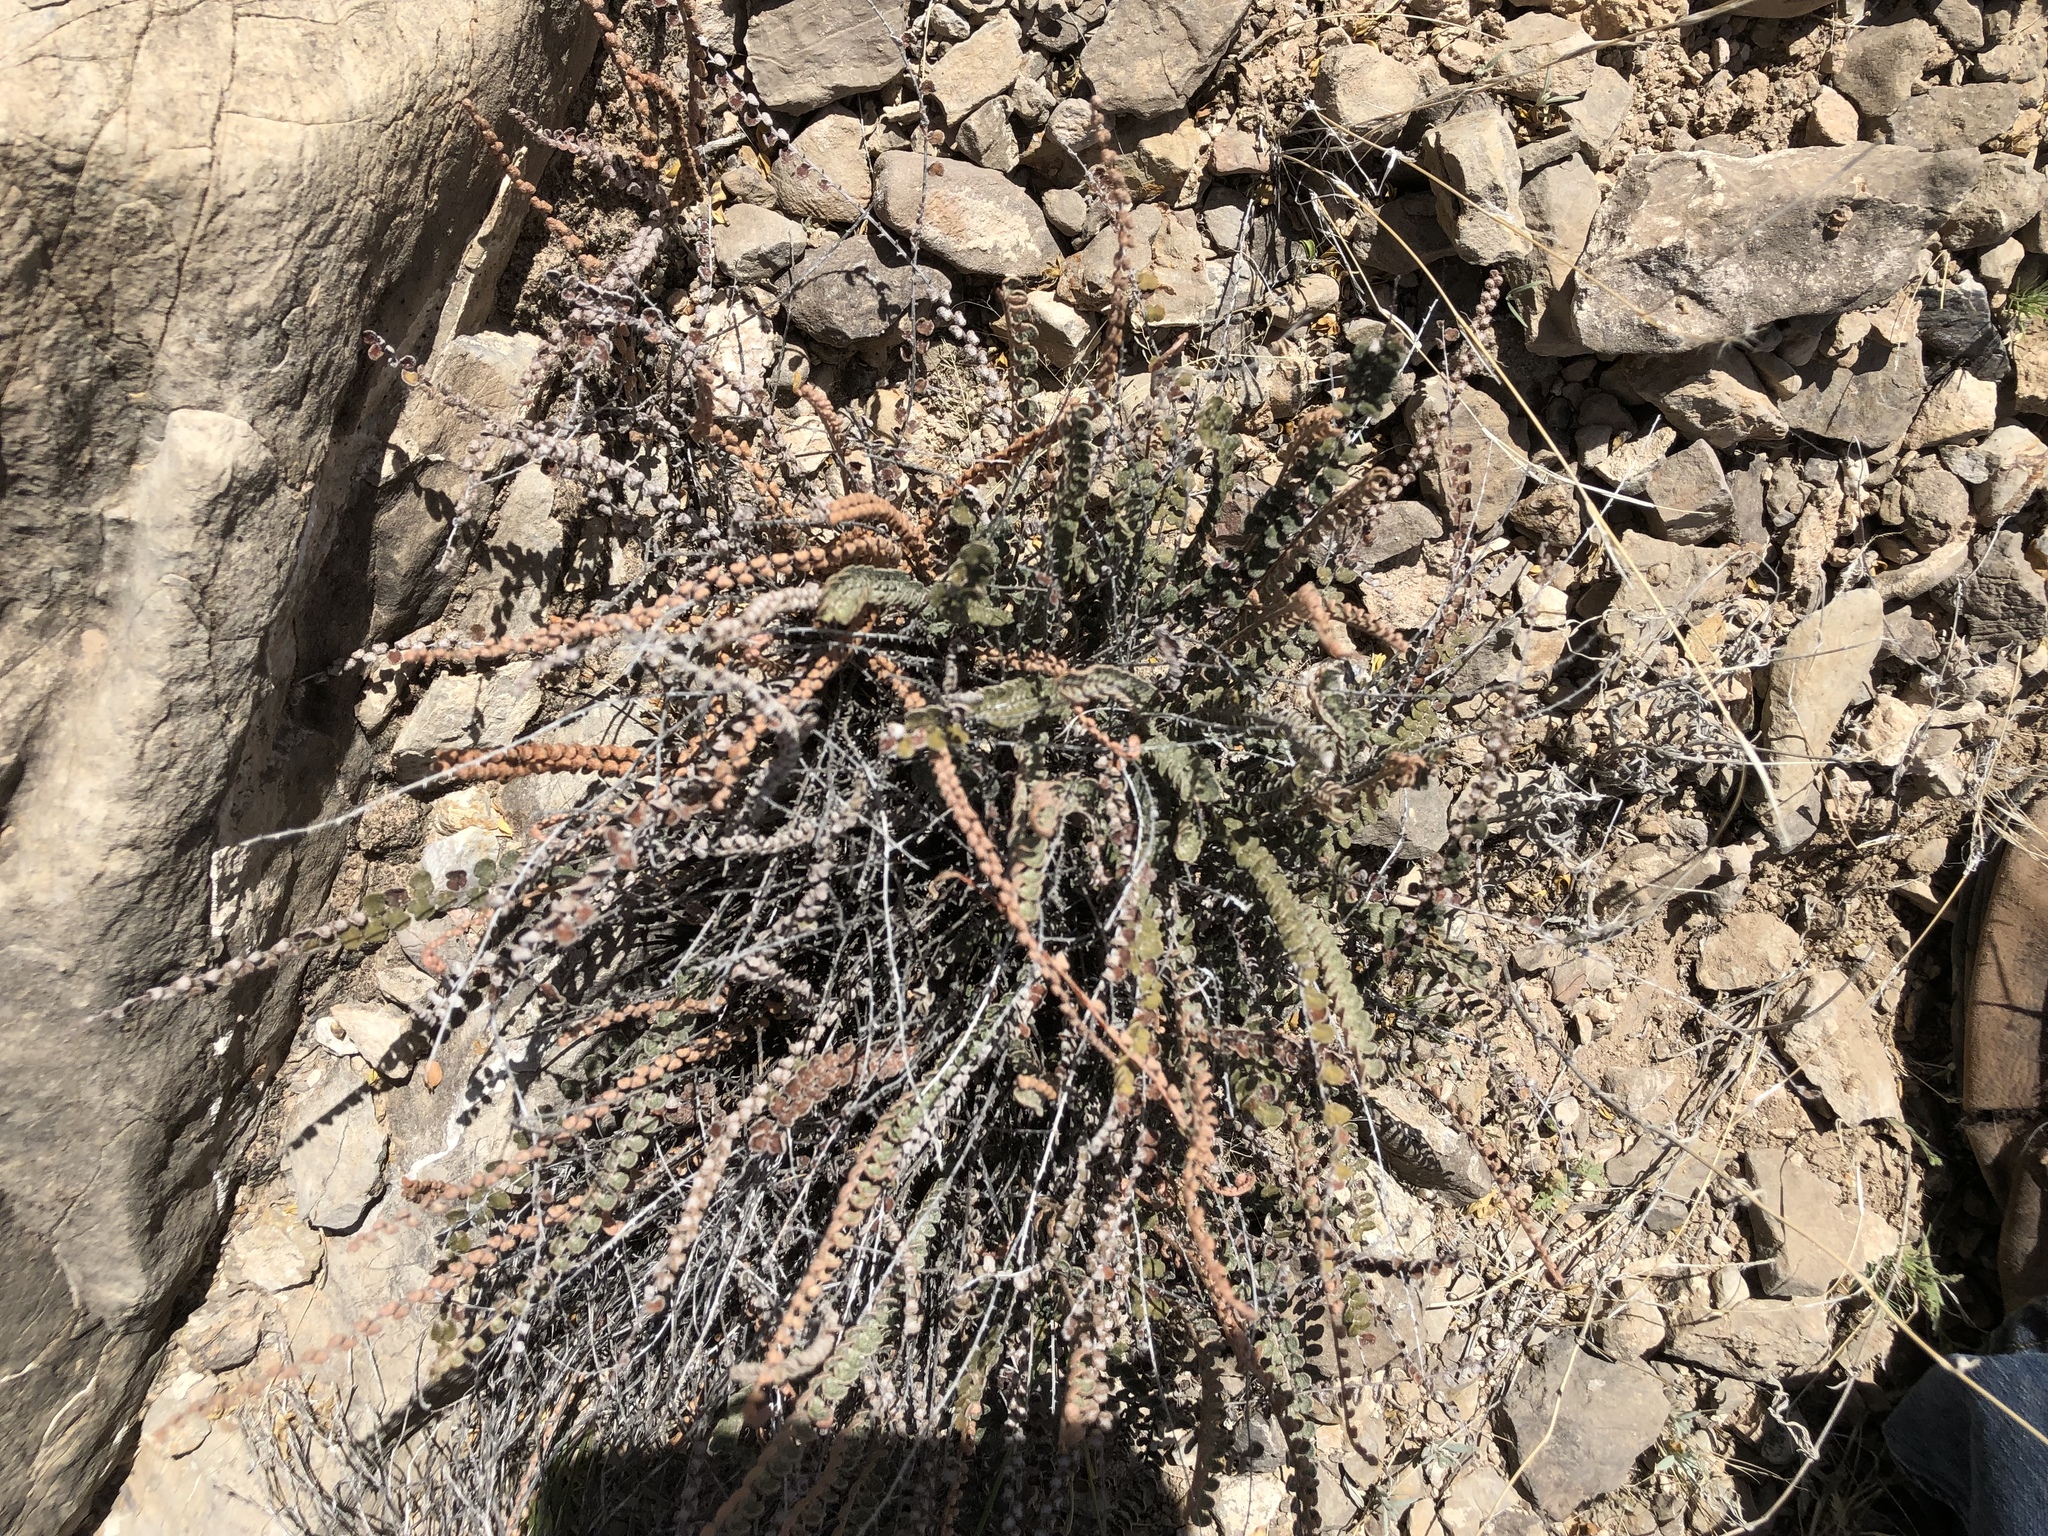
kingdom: Plantae
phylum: Tracheophyta
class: Polypodiopsida
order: Polypodiales
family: Pteridaceae
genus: Astrolepis
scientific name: Astrolepis cochisensis
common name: Scaly cloak fern
